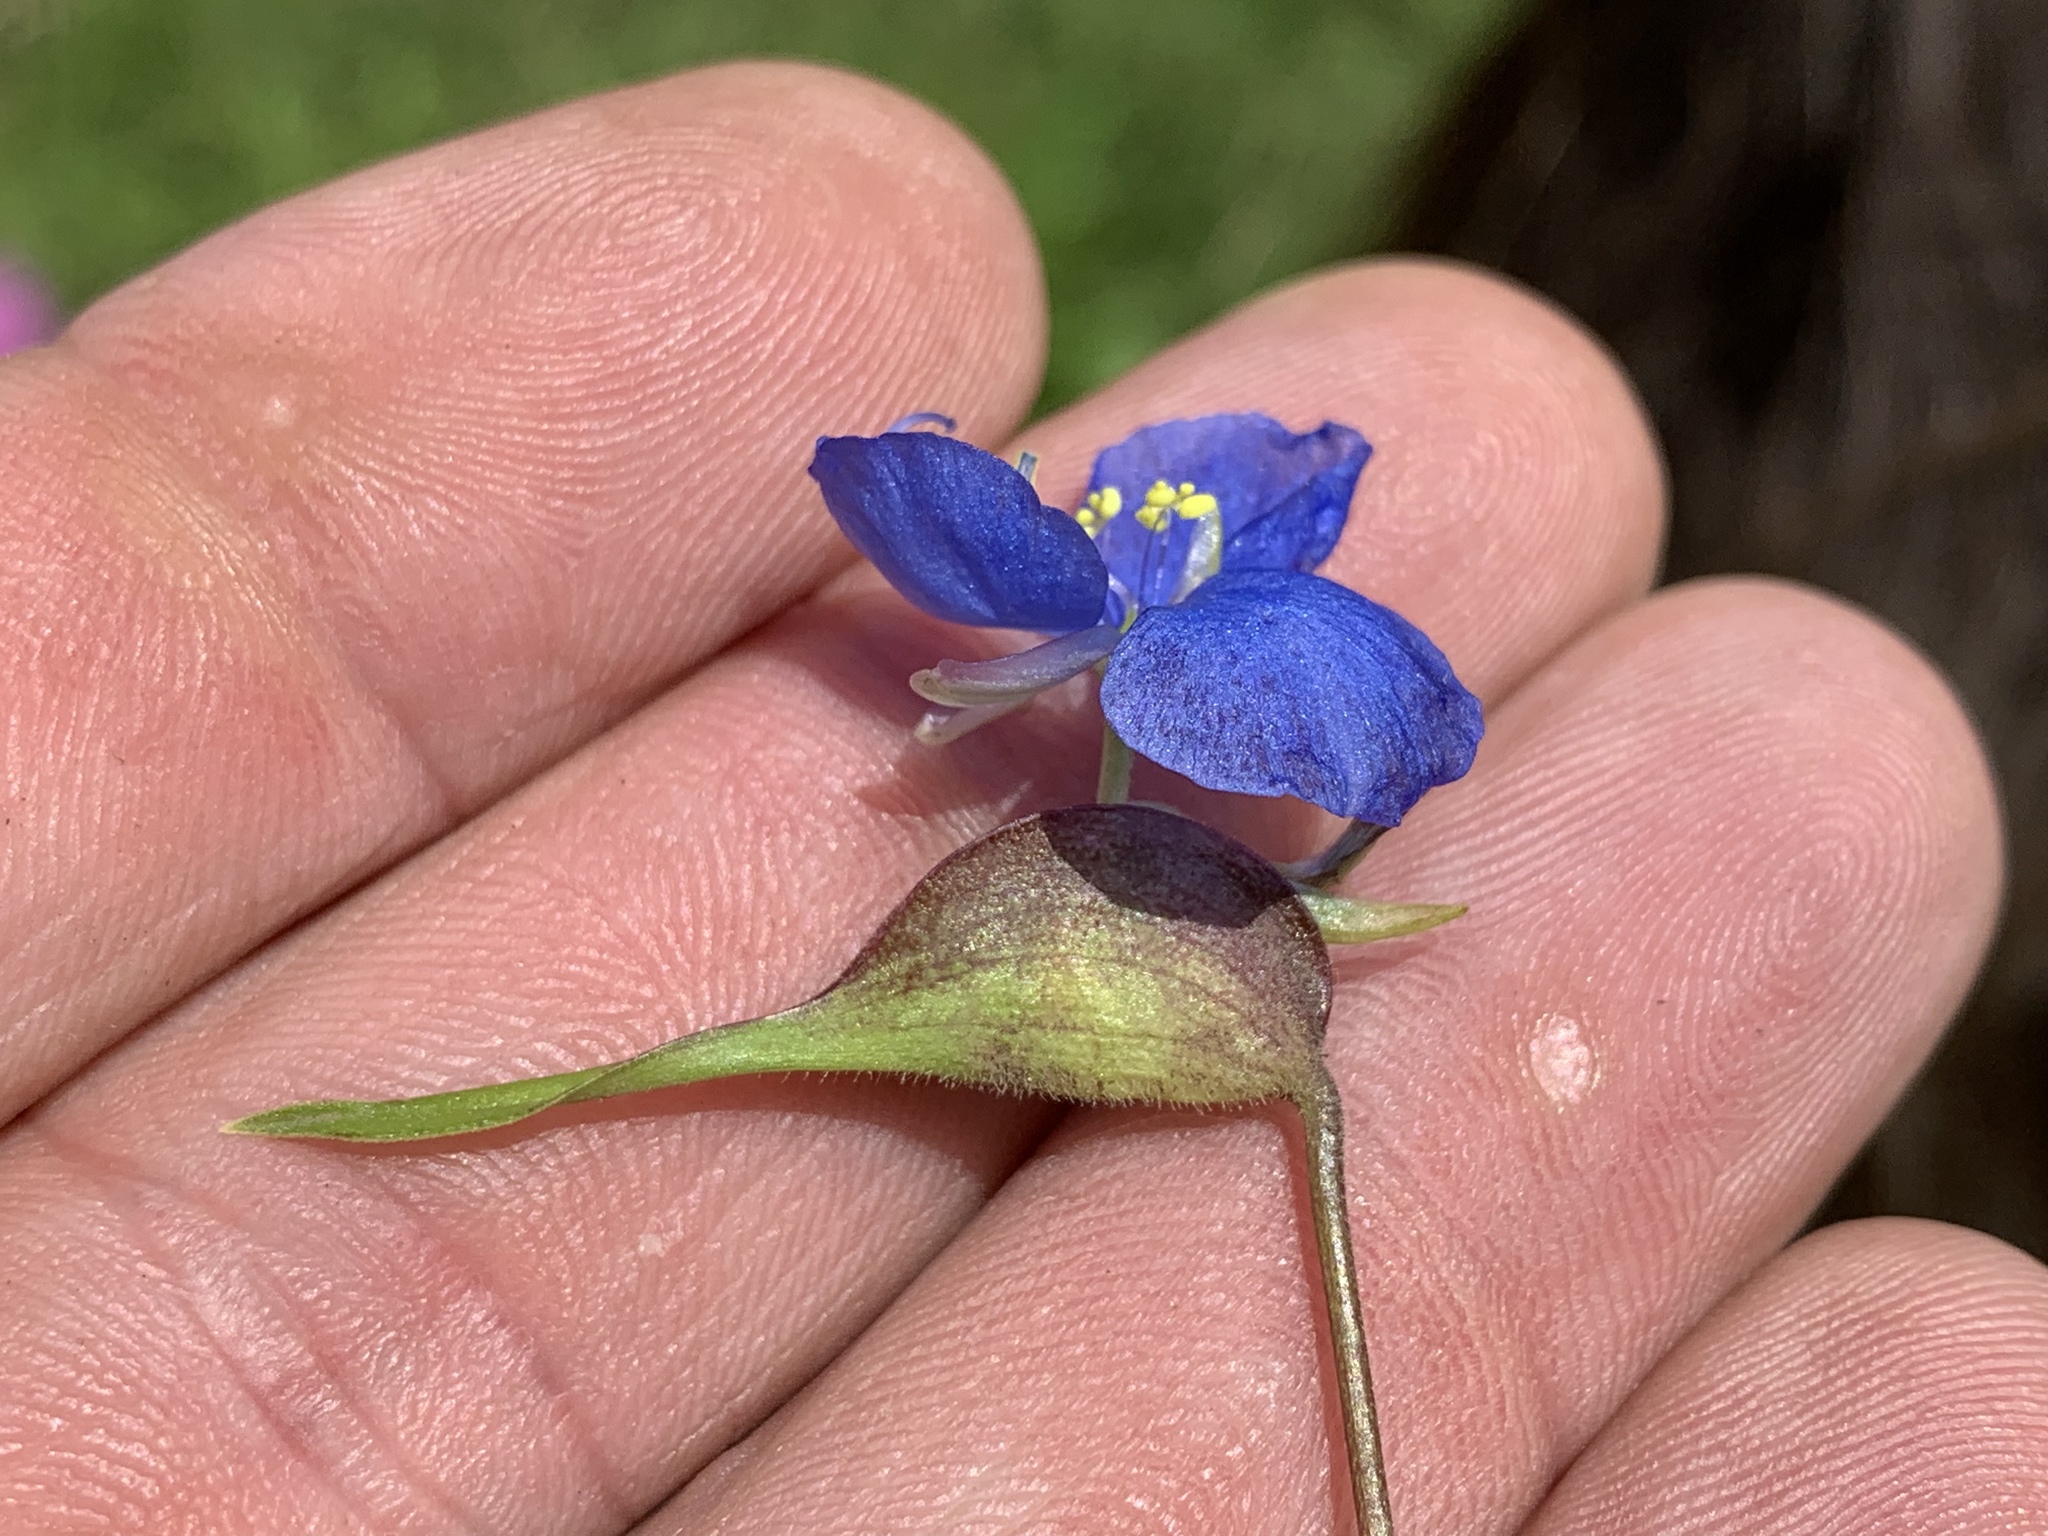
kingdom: Plantae
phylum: Tracheophyta
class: Liliopsida
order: Commelinales
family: Commelinaceae
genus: Commelina
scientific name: Commelina dianthifolia
